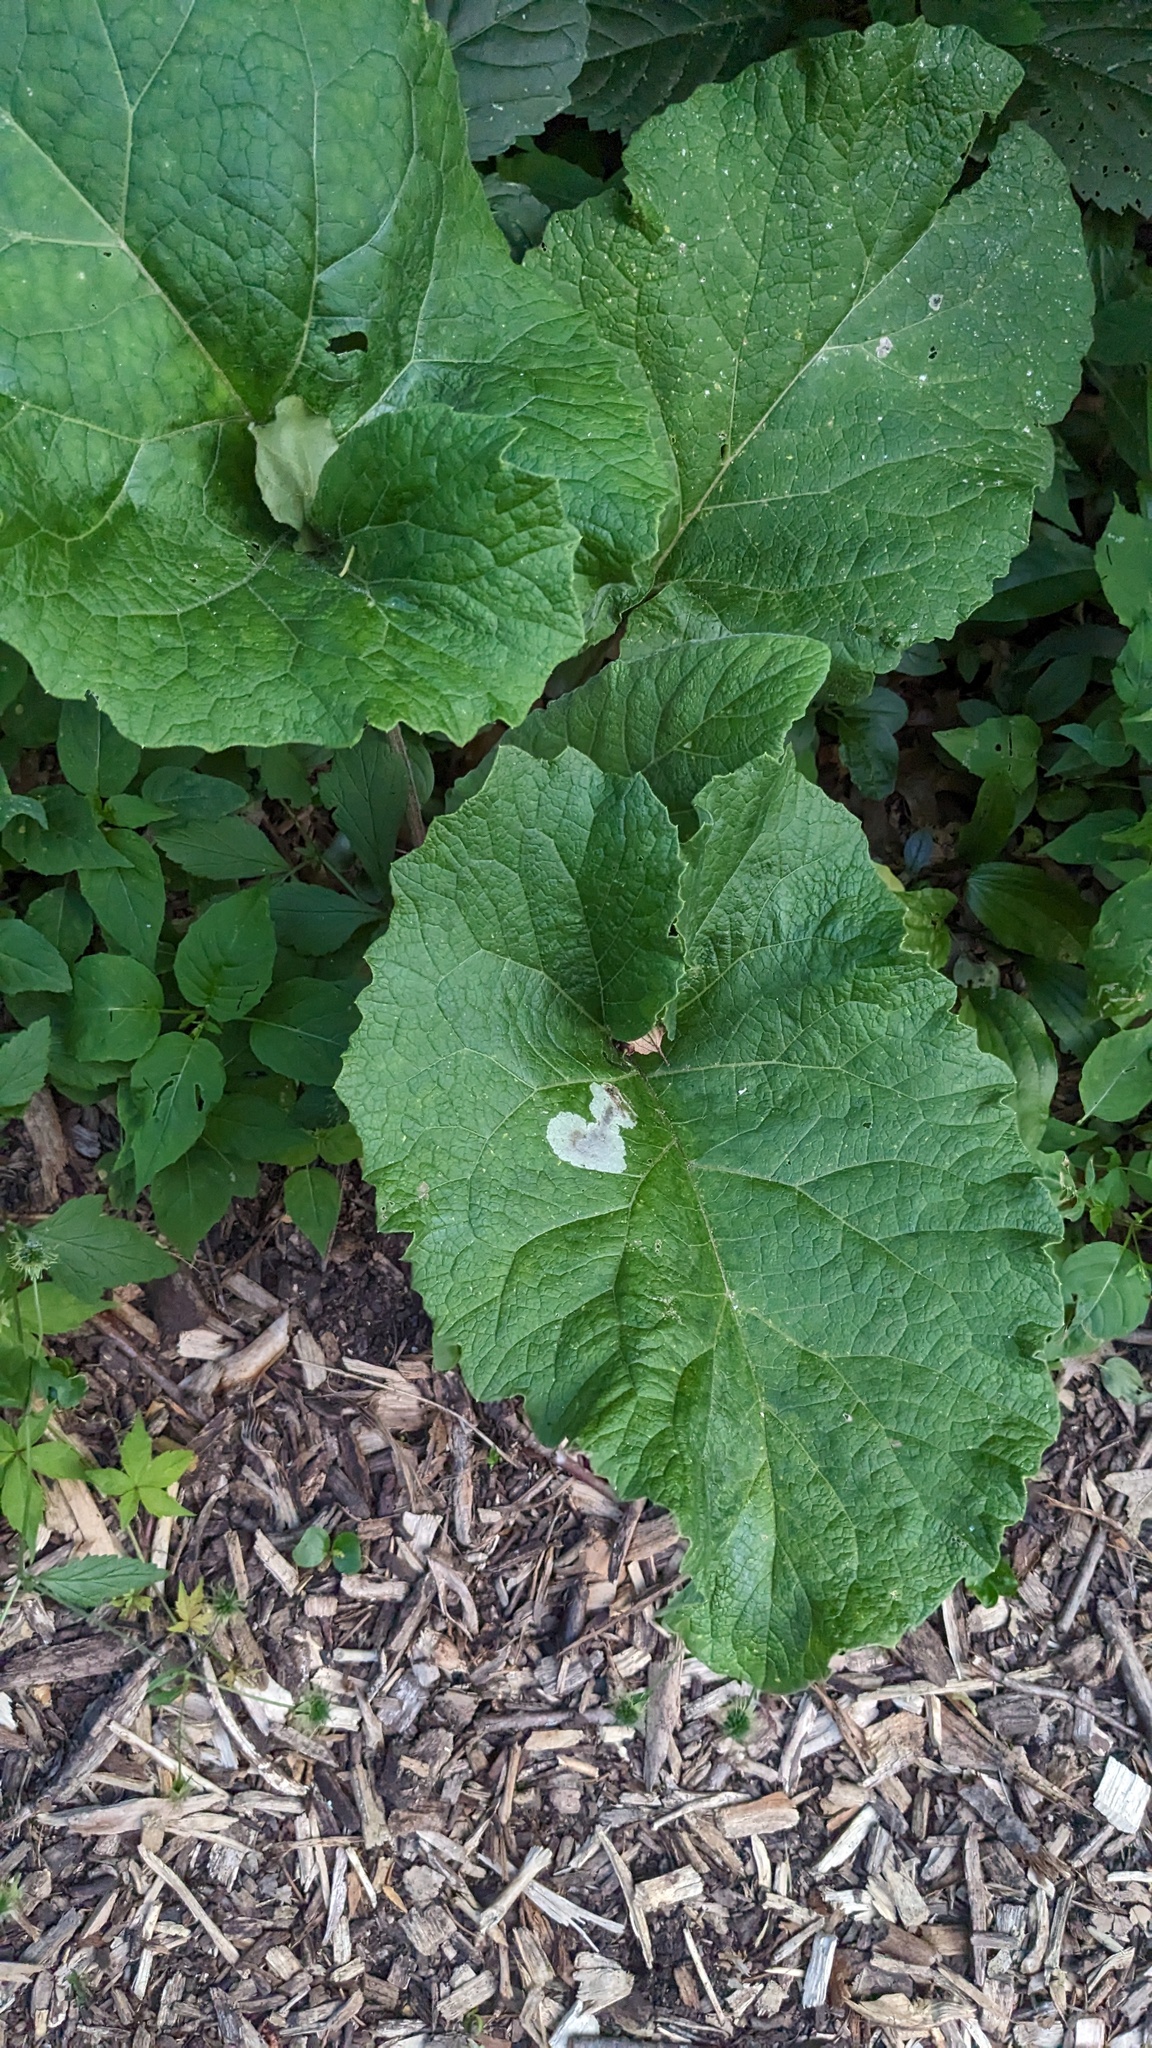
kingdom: Plantae
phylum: Tracheophyta
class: Magnoliopsida
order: Asterales
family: Asteraceae
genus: Arctium
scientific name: Arctium
